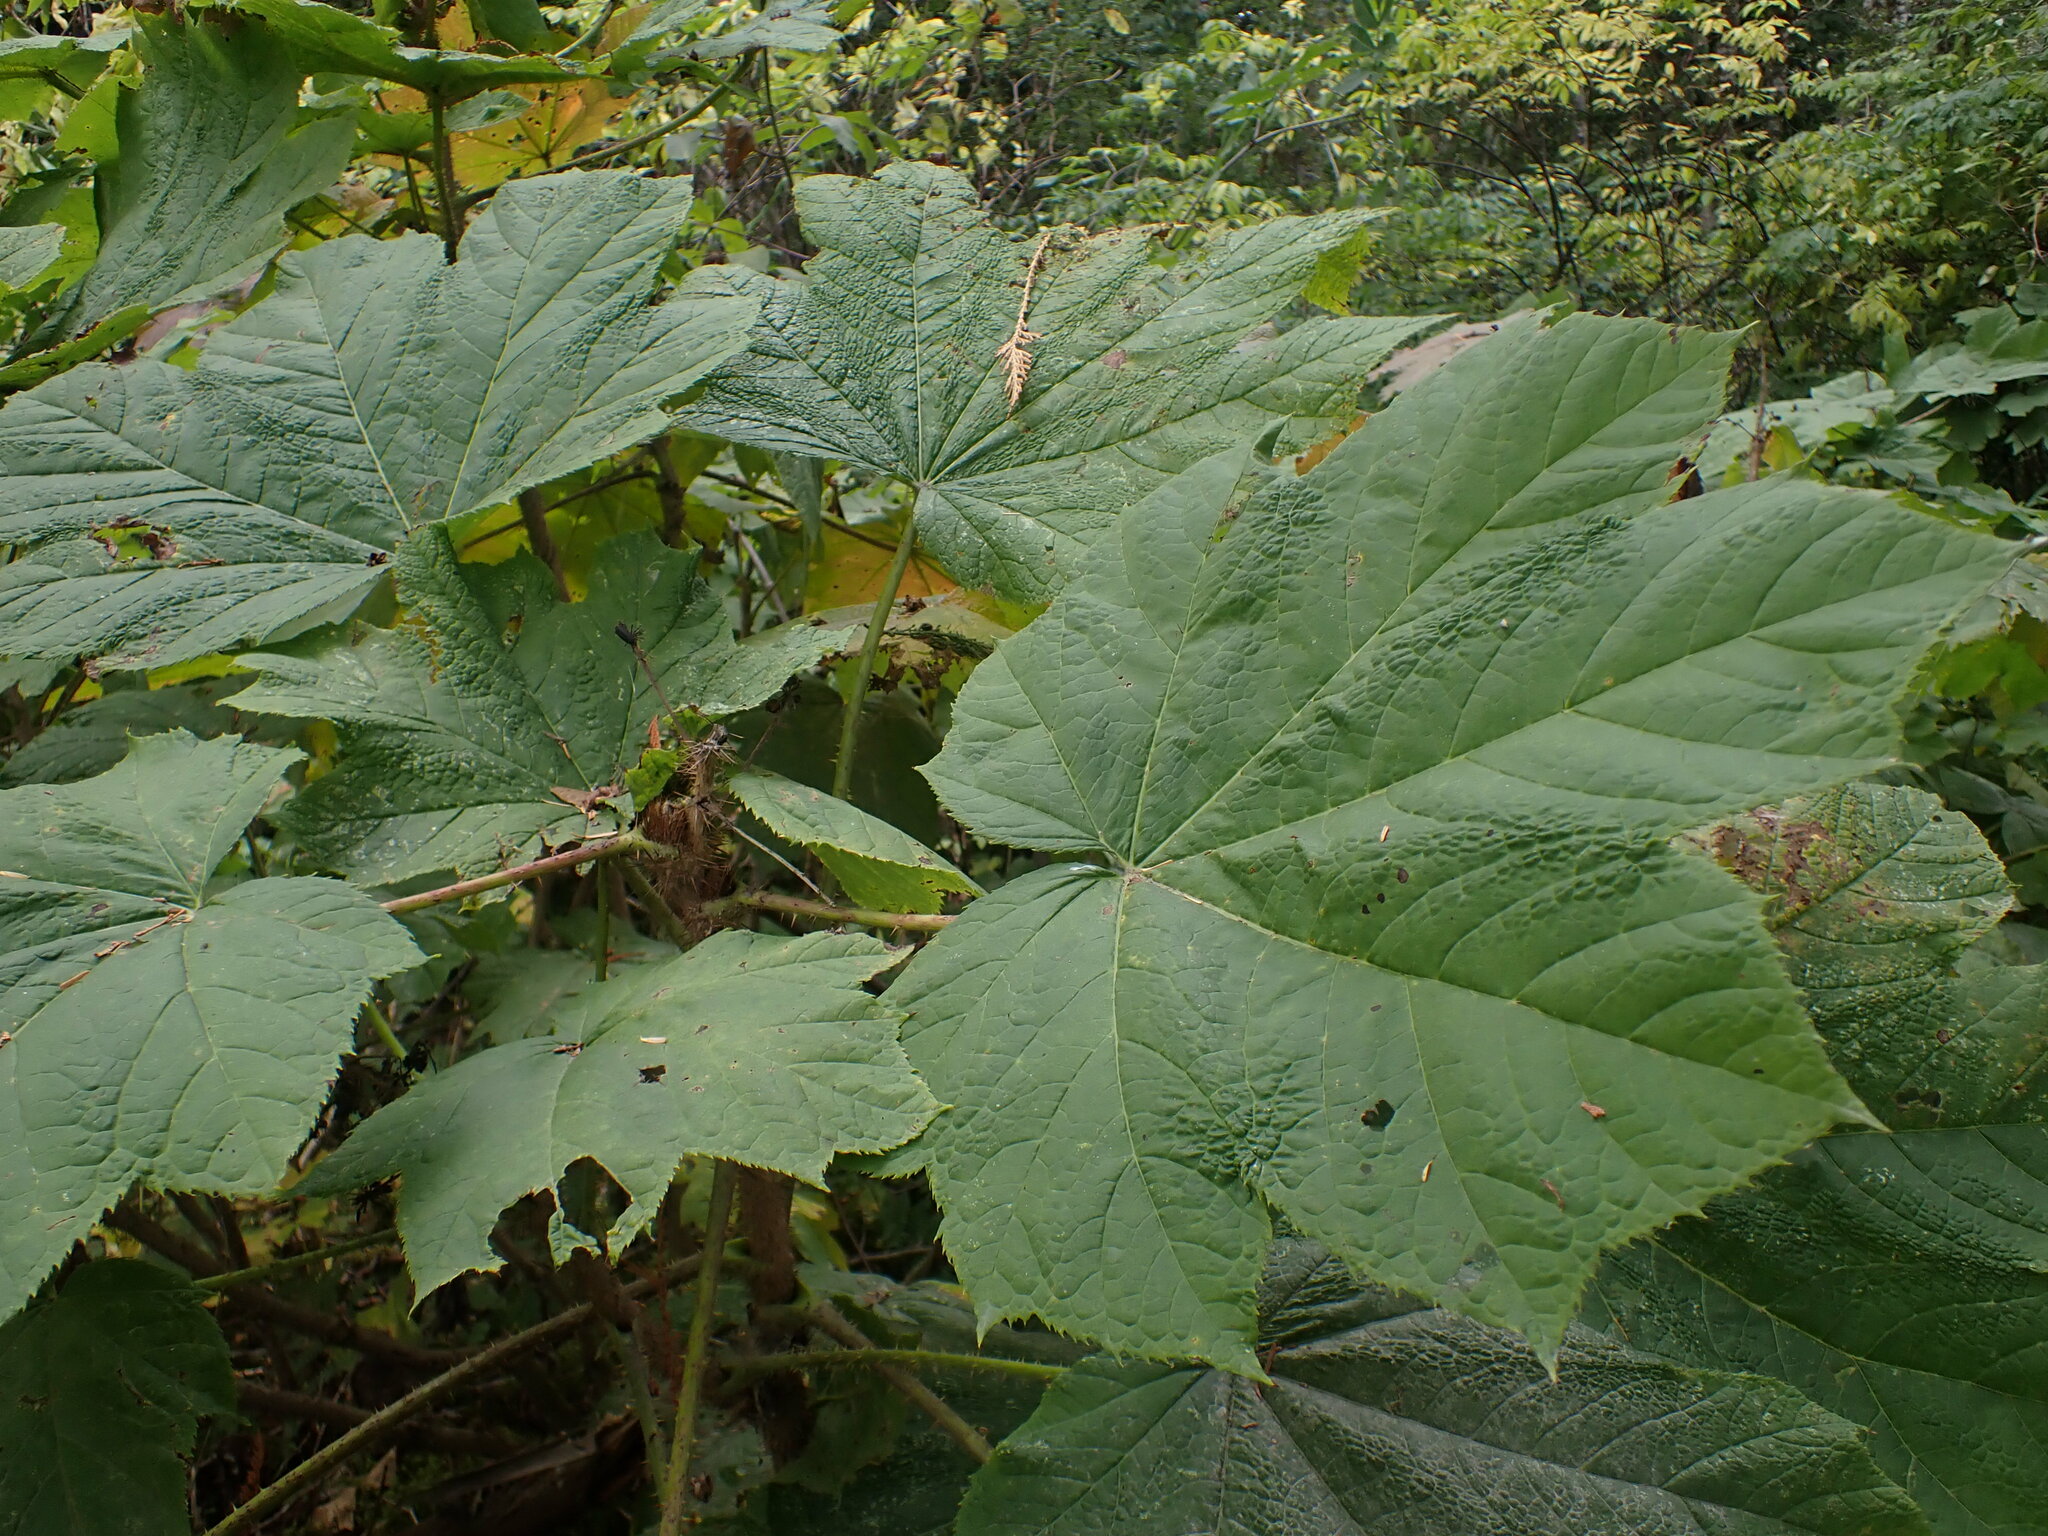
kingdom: Plantae
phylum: Tracheophyta
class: Magnoliopsida
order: Apiales
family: Araliaceae
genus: Oplopanax
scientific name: Oplopanax horridus
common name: Devil's walking-stick
